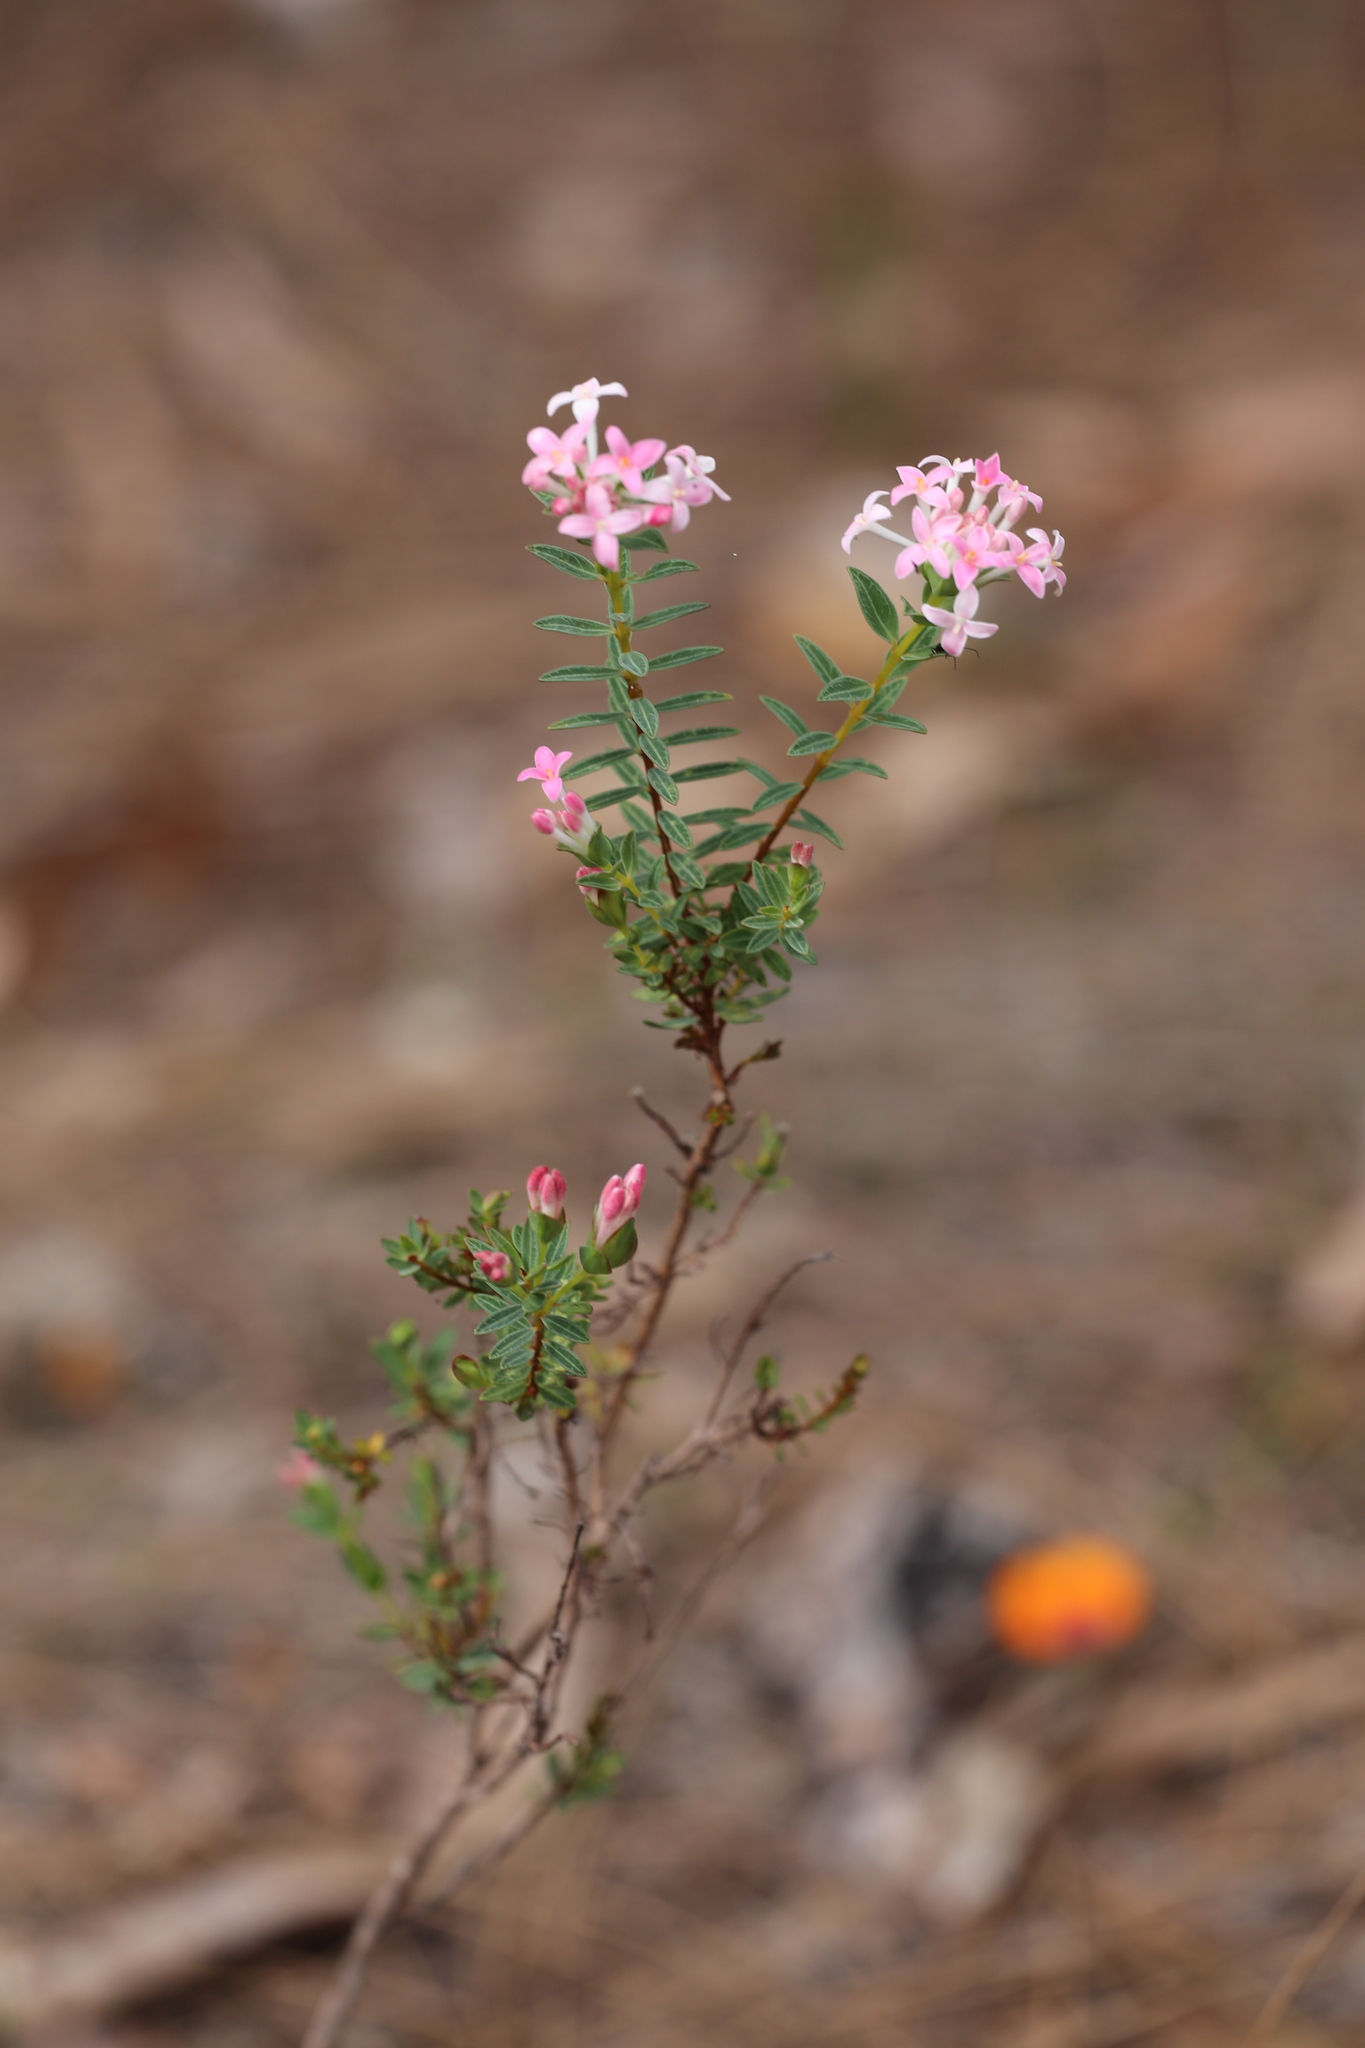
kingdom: Plantae
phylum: Tracheophyta
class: Magnoliopsida
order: Malvales
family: Thymelaeaceae
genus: Pimelea
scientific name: Pimelea preissii
